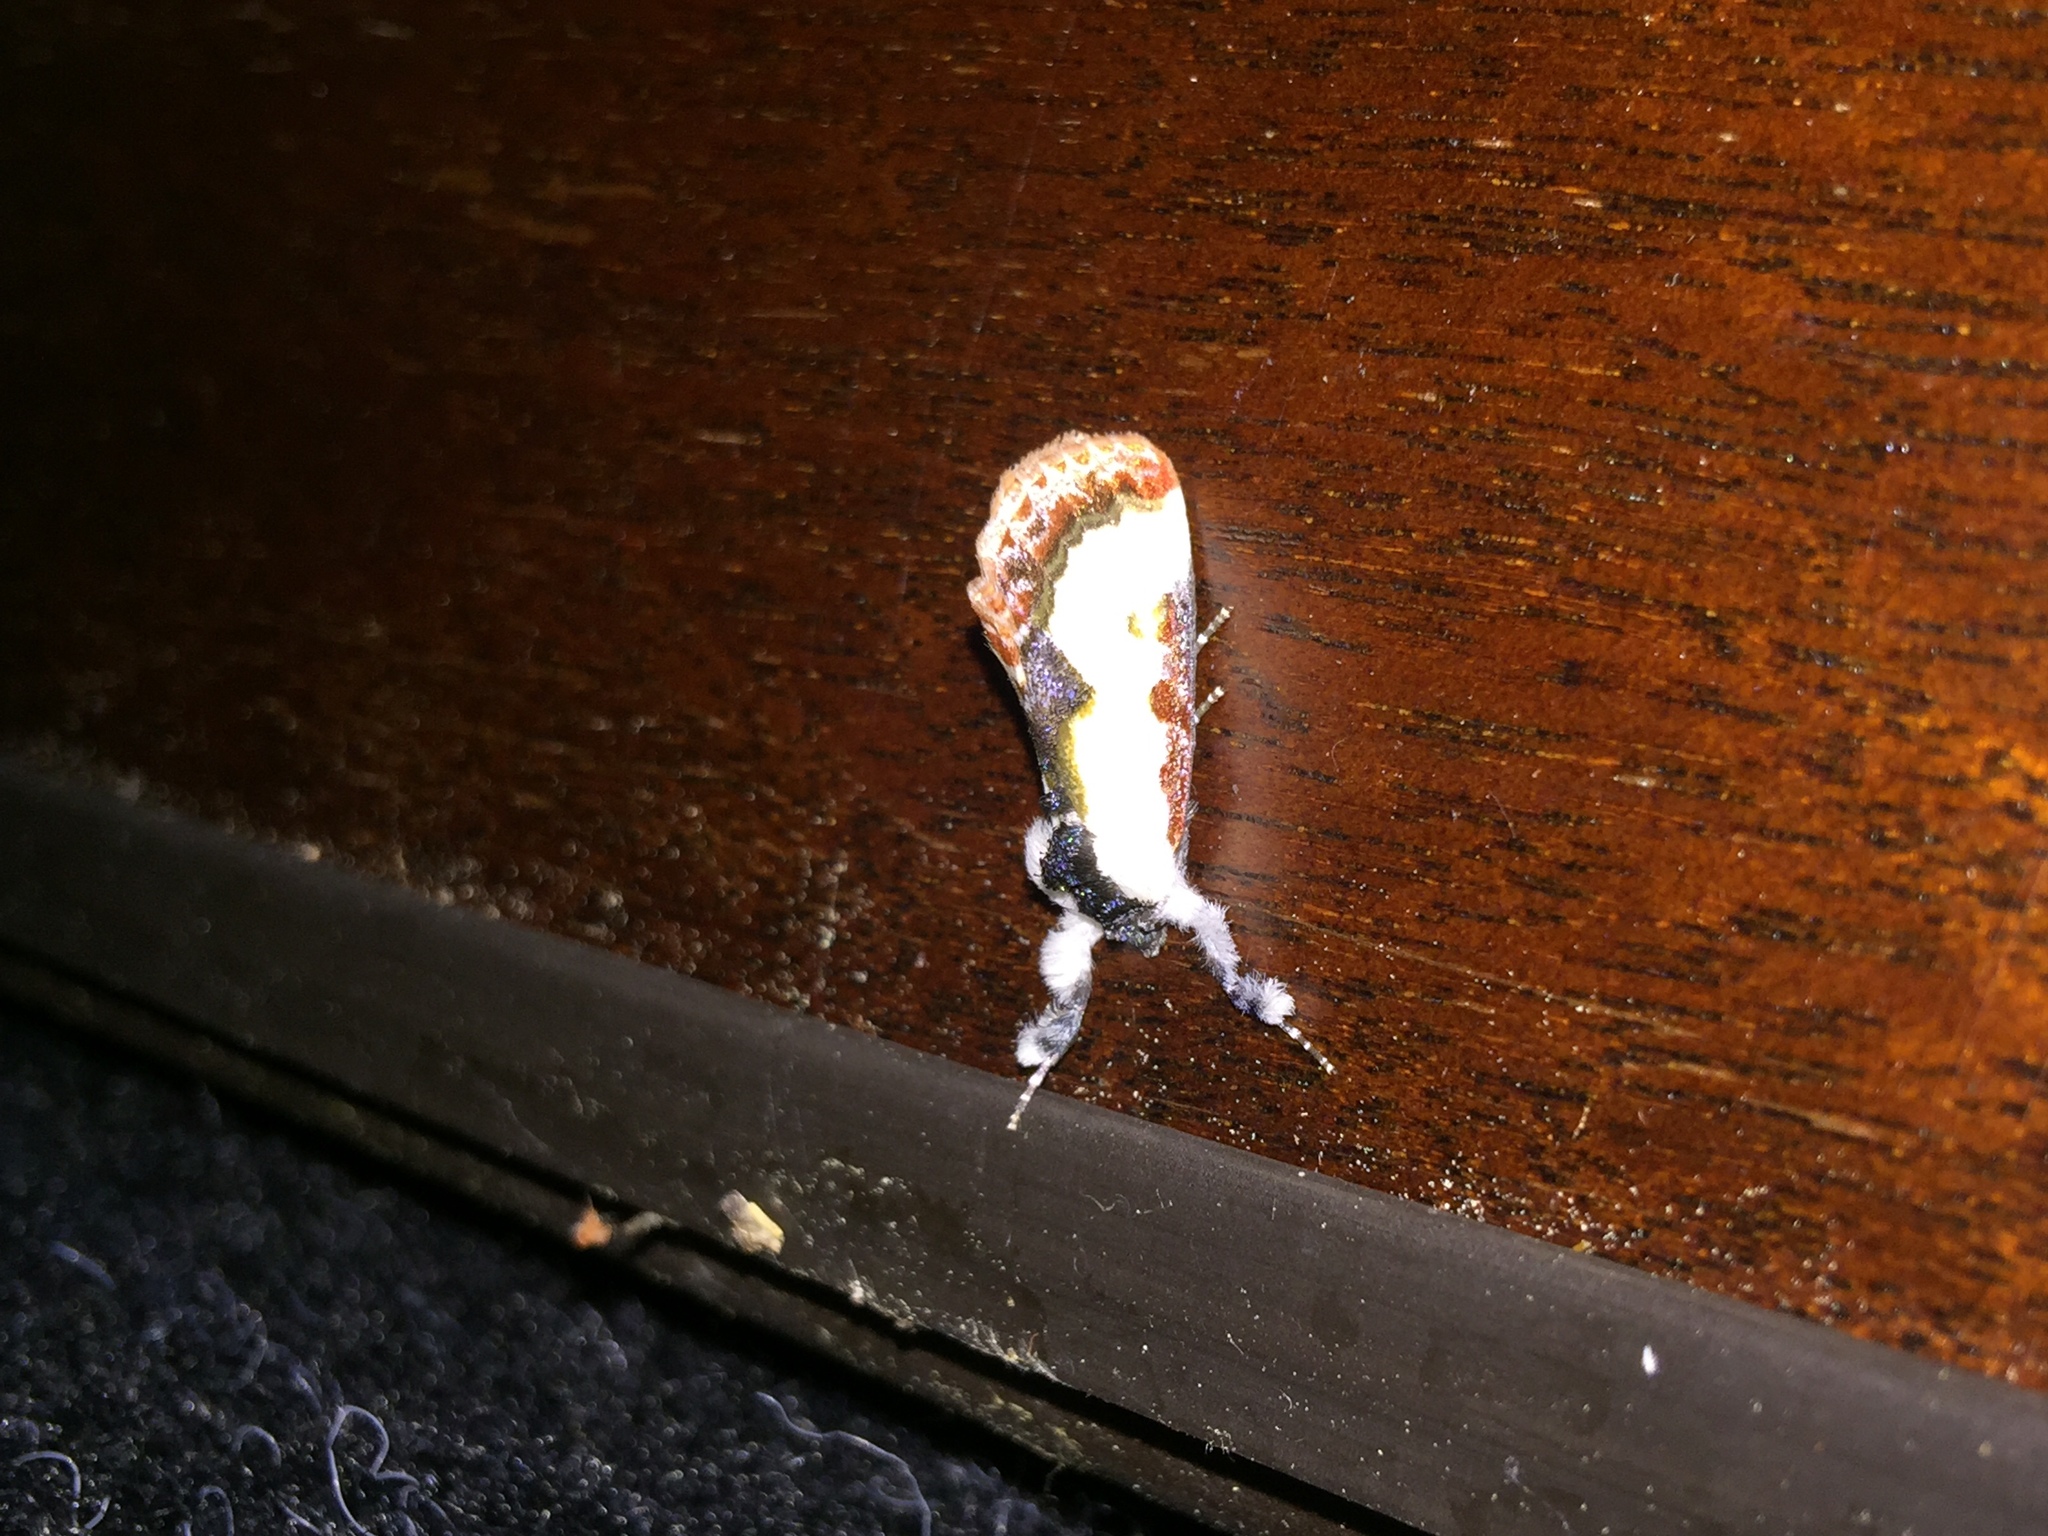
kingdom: Animalia
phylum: Arthropoda
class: Insecta
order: Lepidoptera
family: Noctuidae
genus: Eudryas
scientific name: Eudryas unio
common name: Pearly wood-nymph
